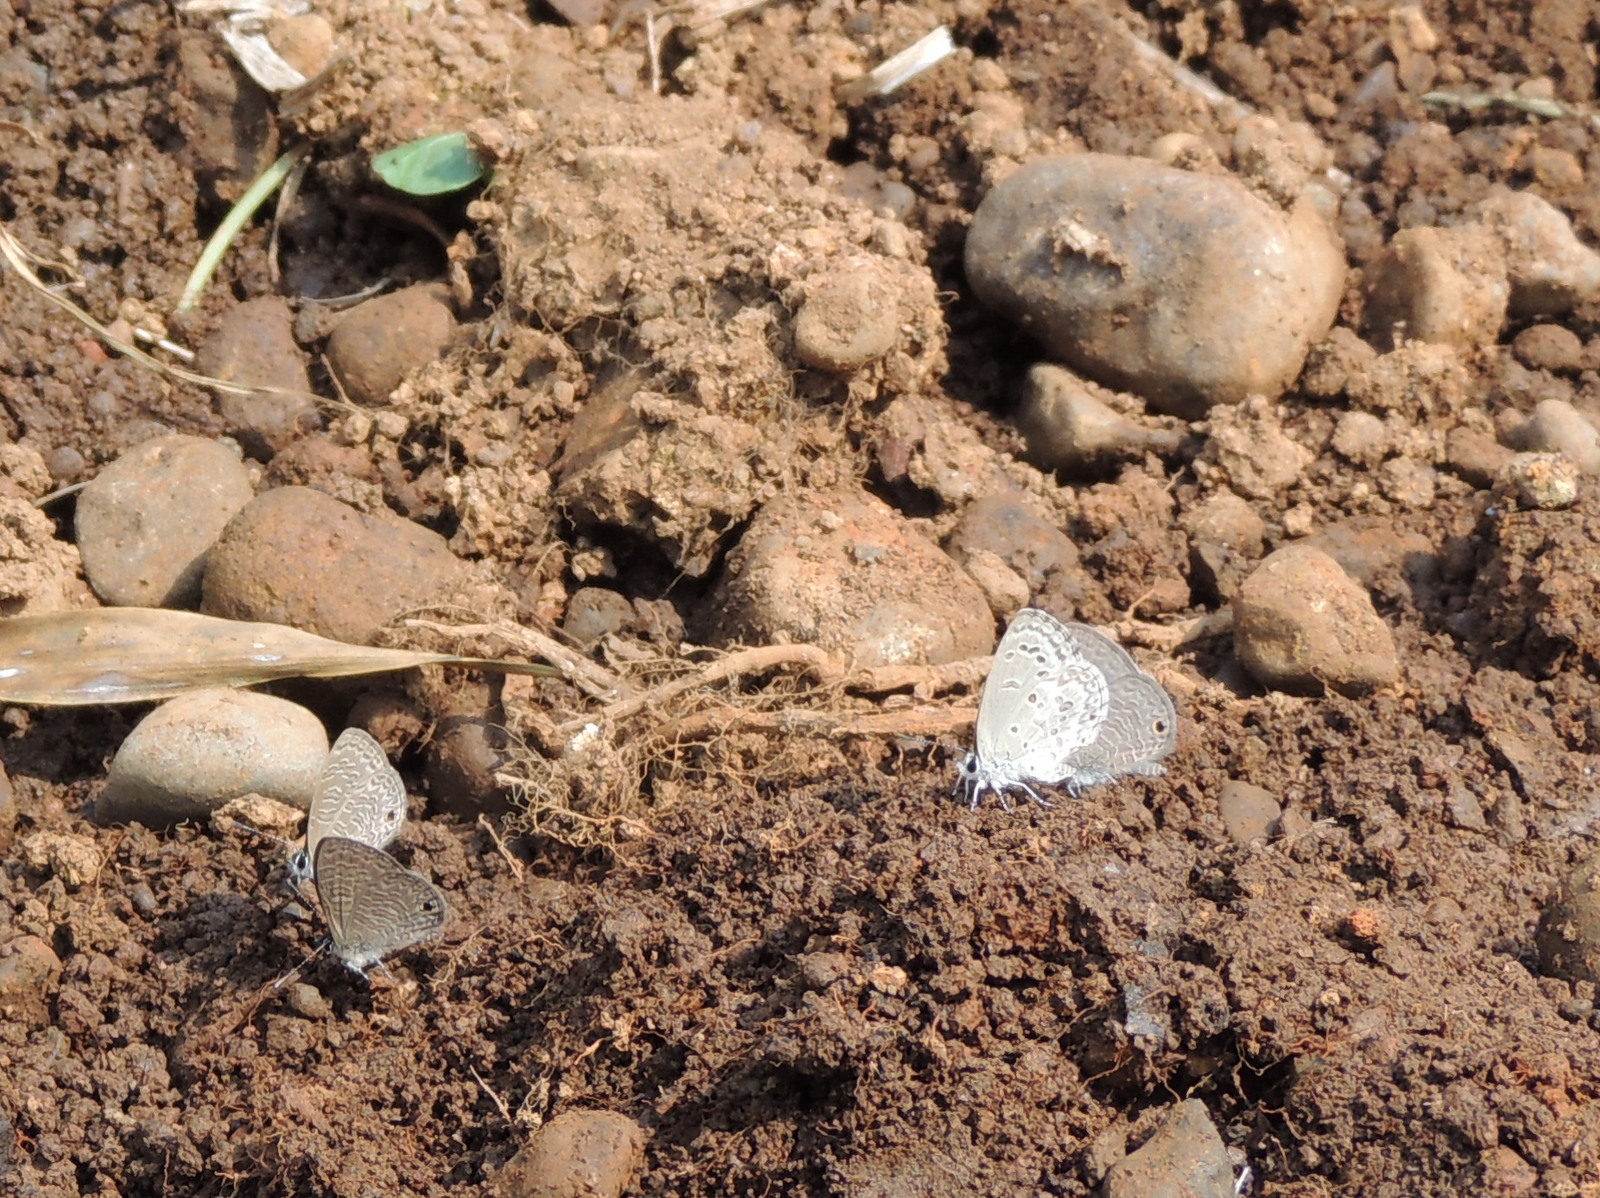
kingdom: Animalia
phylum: Arthropoda
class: Insecta
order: Lepidoptera
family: Lycaenidae
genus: Prosotas
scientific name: Prosotas dubiosa
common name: Tailless lineblue
